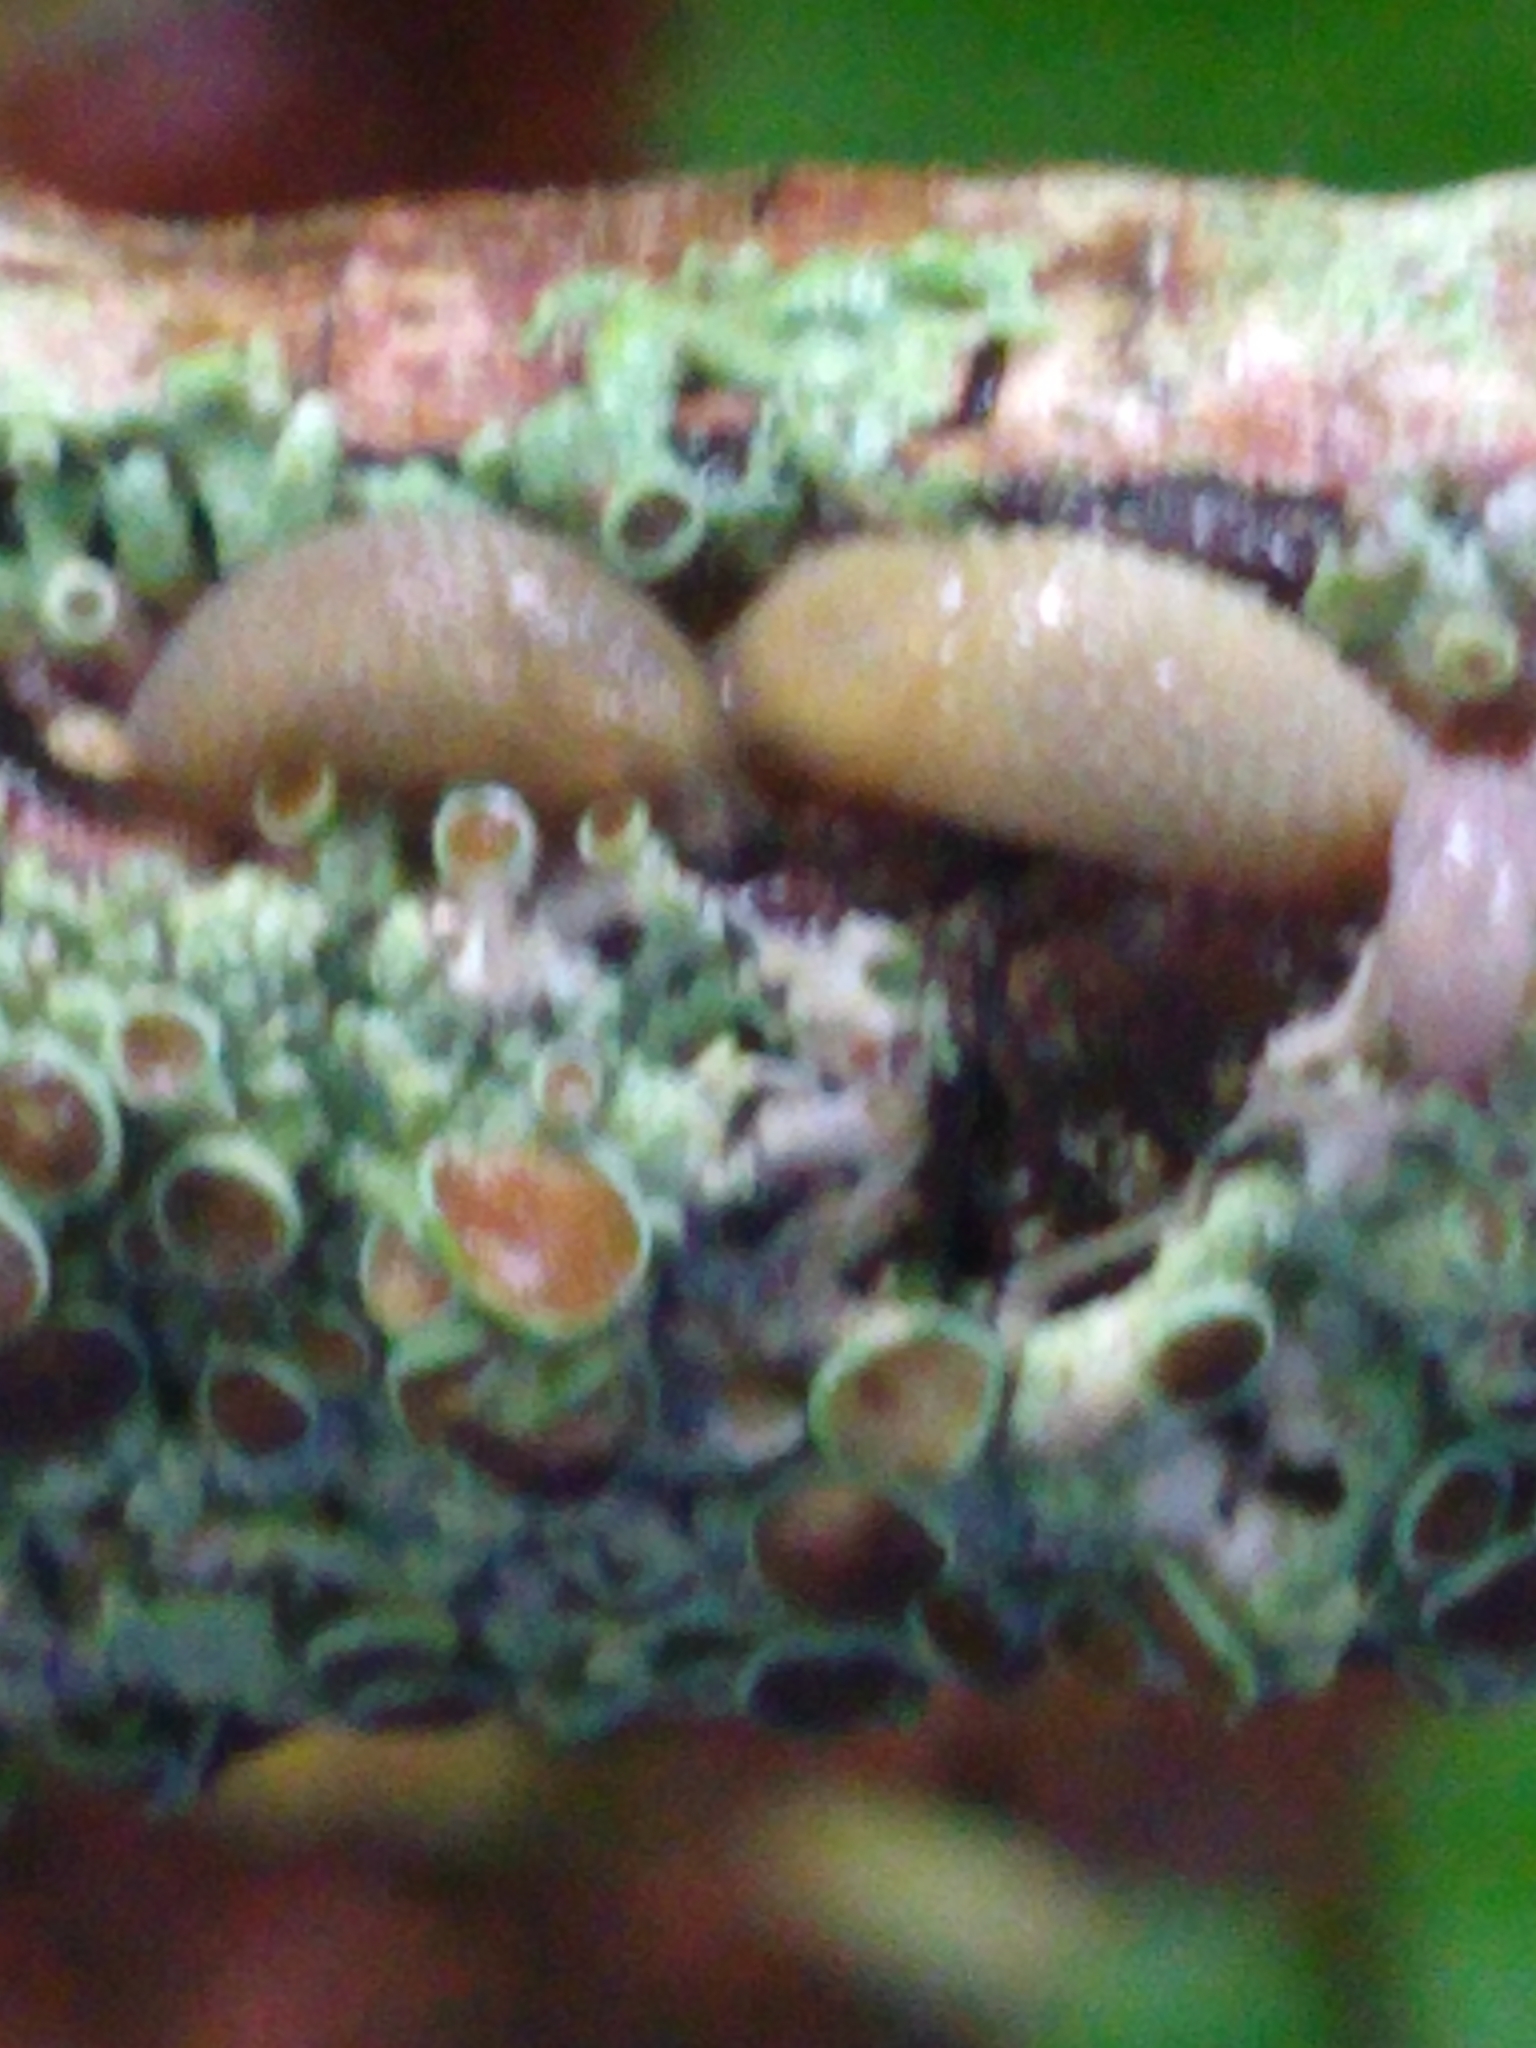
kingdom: Animalia
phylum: Mollusca
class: Gastropoda
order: Stylommatophora
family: Arionidae
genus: Arion
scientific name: Arion intermedius
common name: Hedgehog slug
